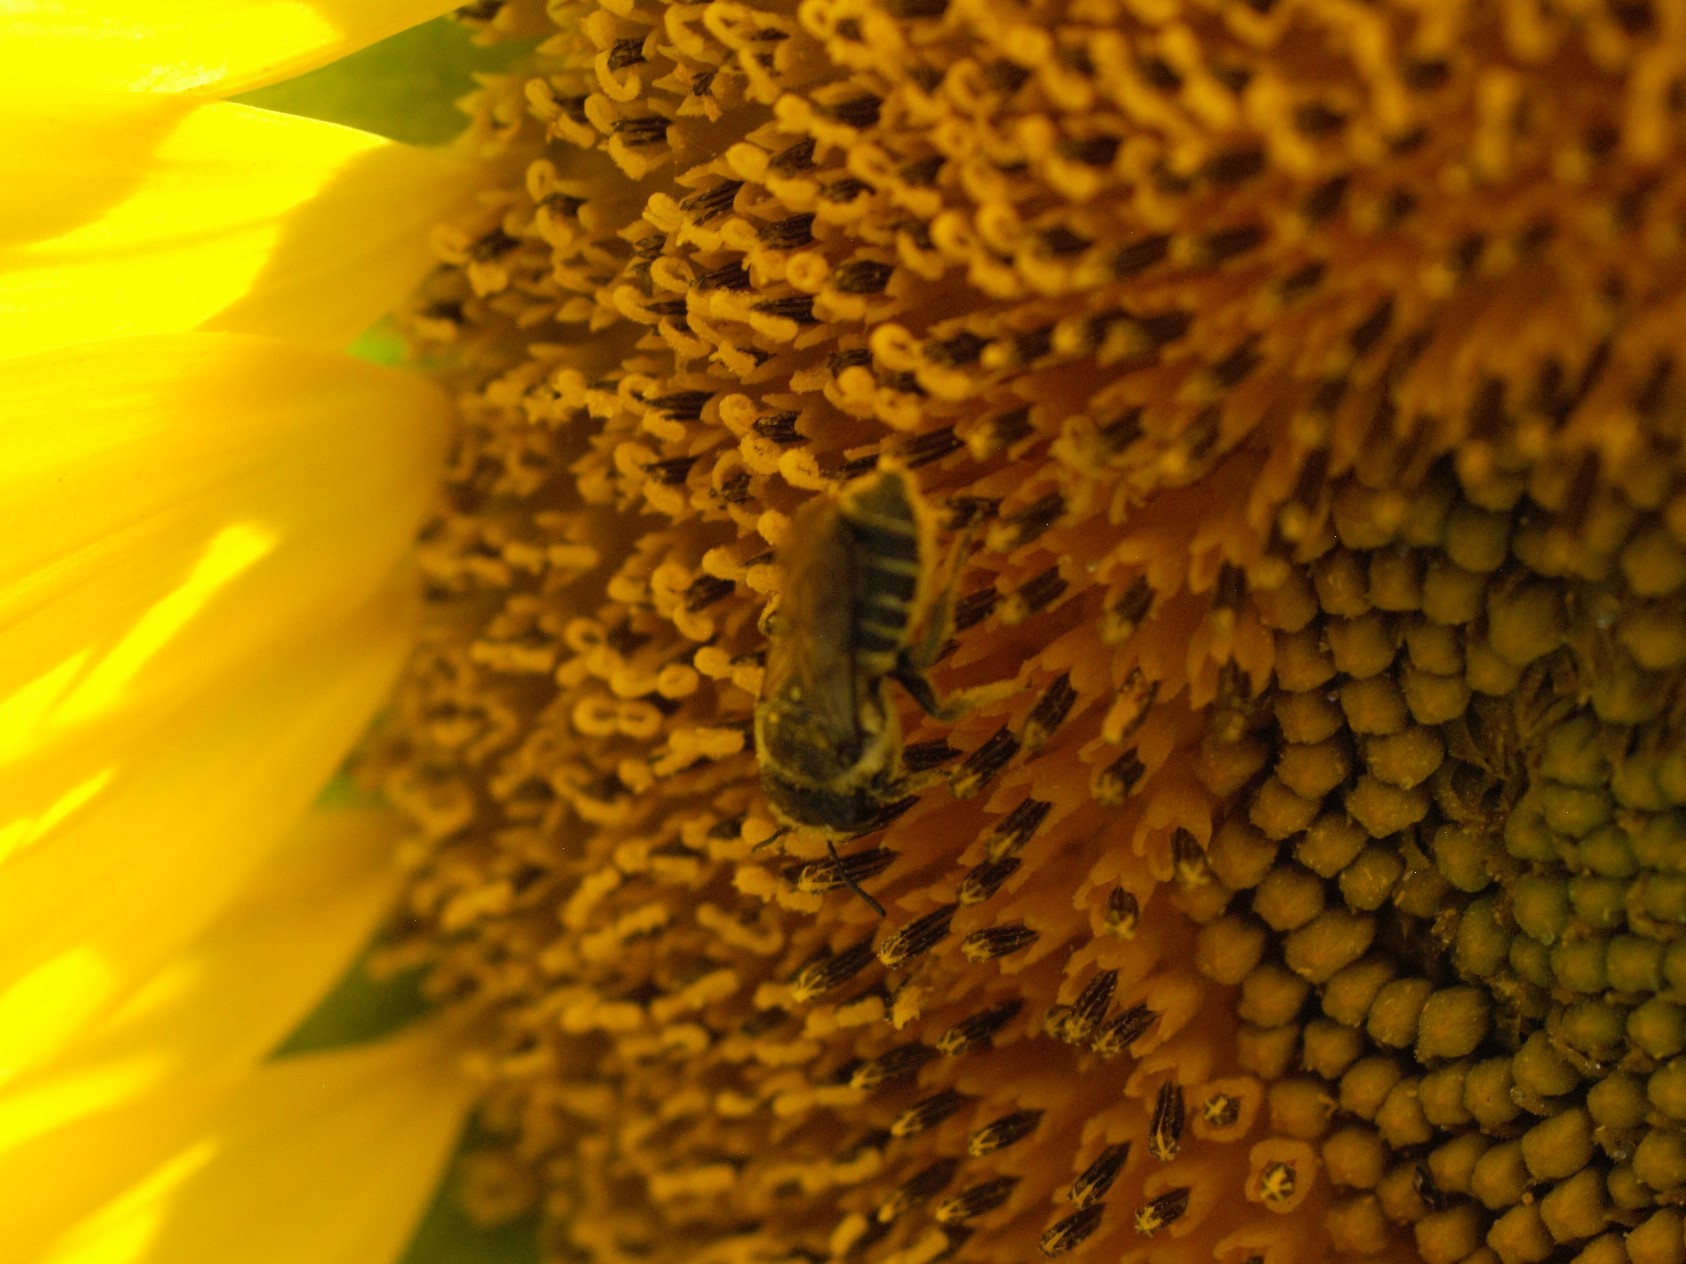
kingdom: Animalia
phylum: Arthropoda
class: Insecta
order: Hymenoptera
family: Megachilidae
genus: Megachile
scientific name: Megachile
